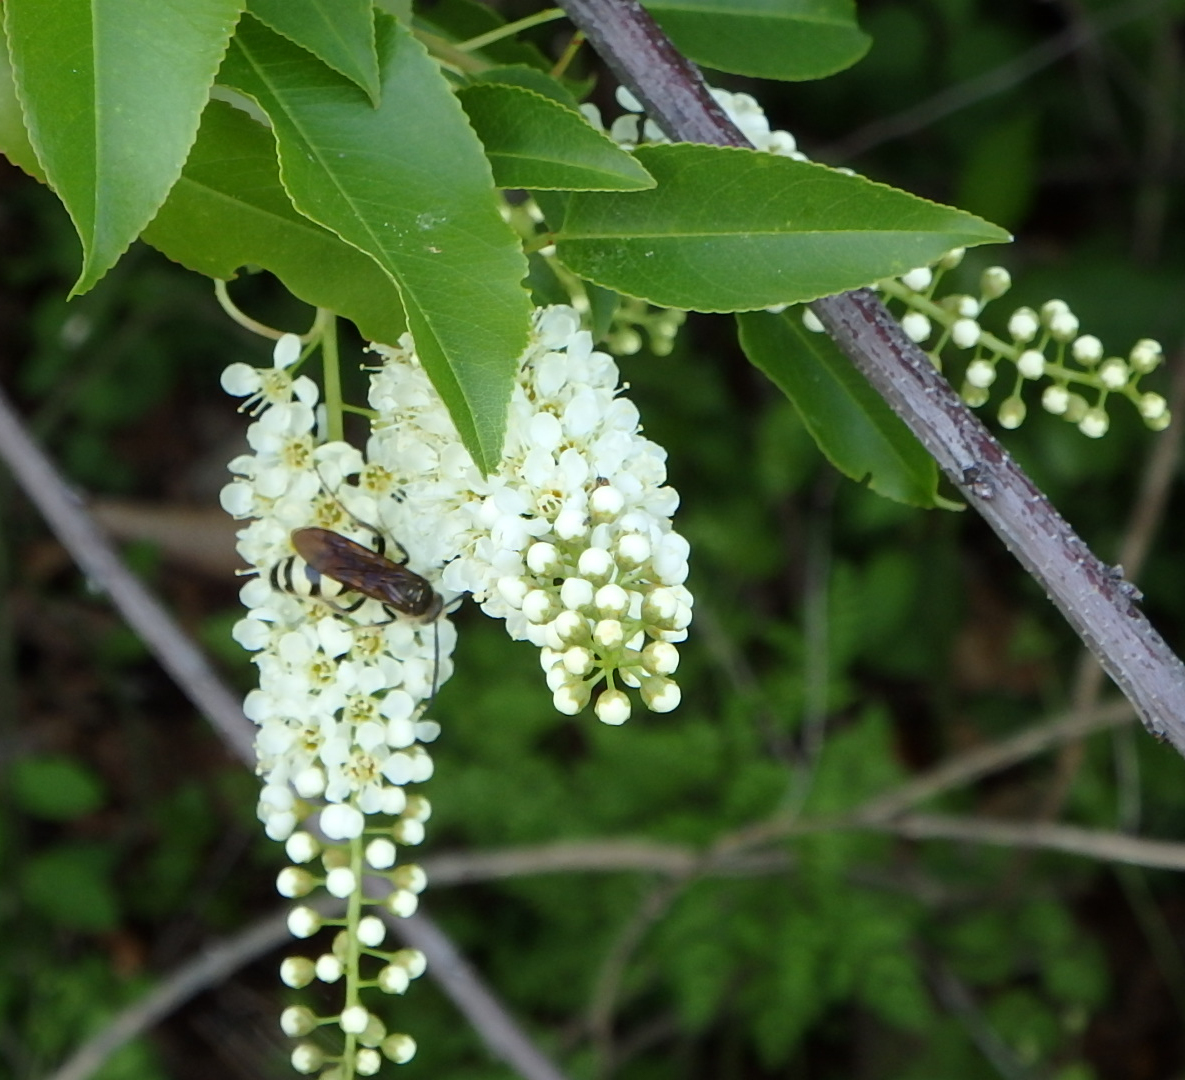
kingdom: Animalia
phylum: Arthropoda
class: Insecta
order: Hymenoptera
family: Scoliidae
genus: Dielis
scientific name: Dielis
